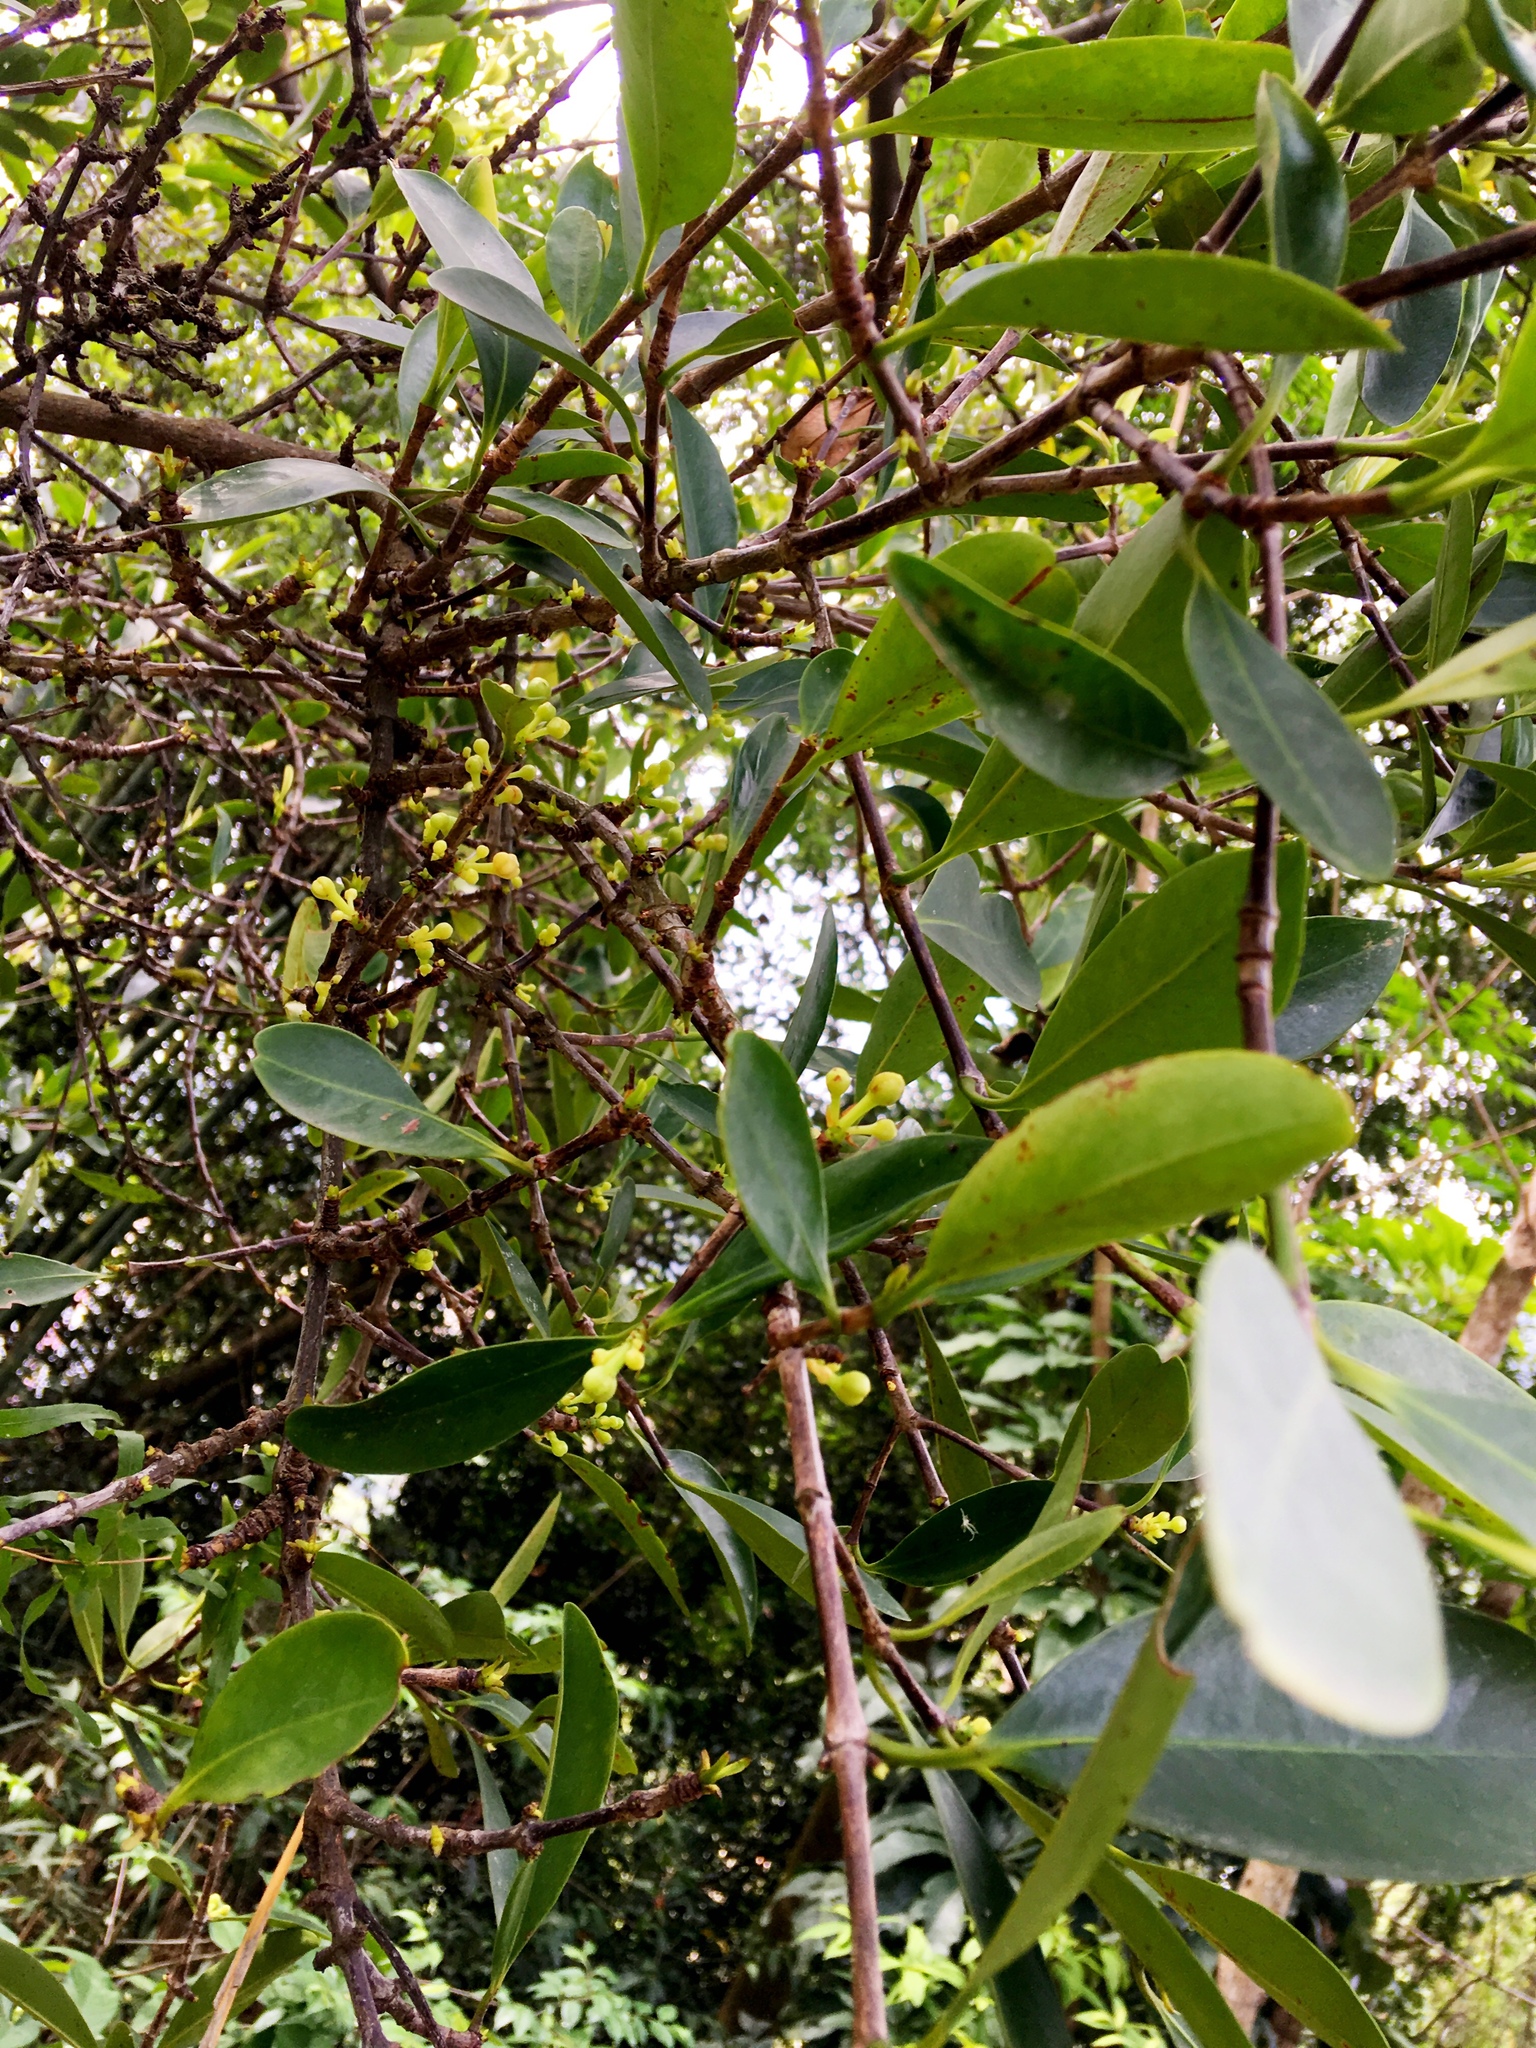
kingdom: Plantae
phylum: Tracheophyta
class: Magnoliopsida
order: Malpighiales
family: Clusiaceae
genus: Garcinia
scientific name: Garcinia oblongifolia
